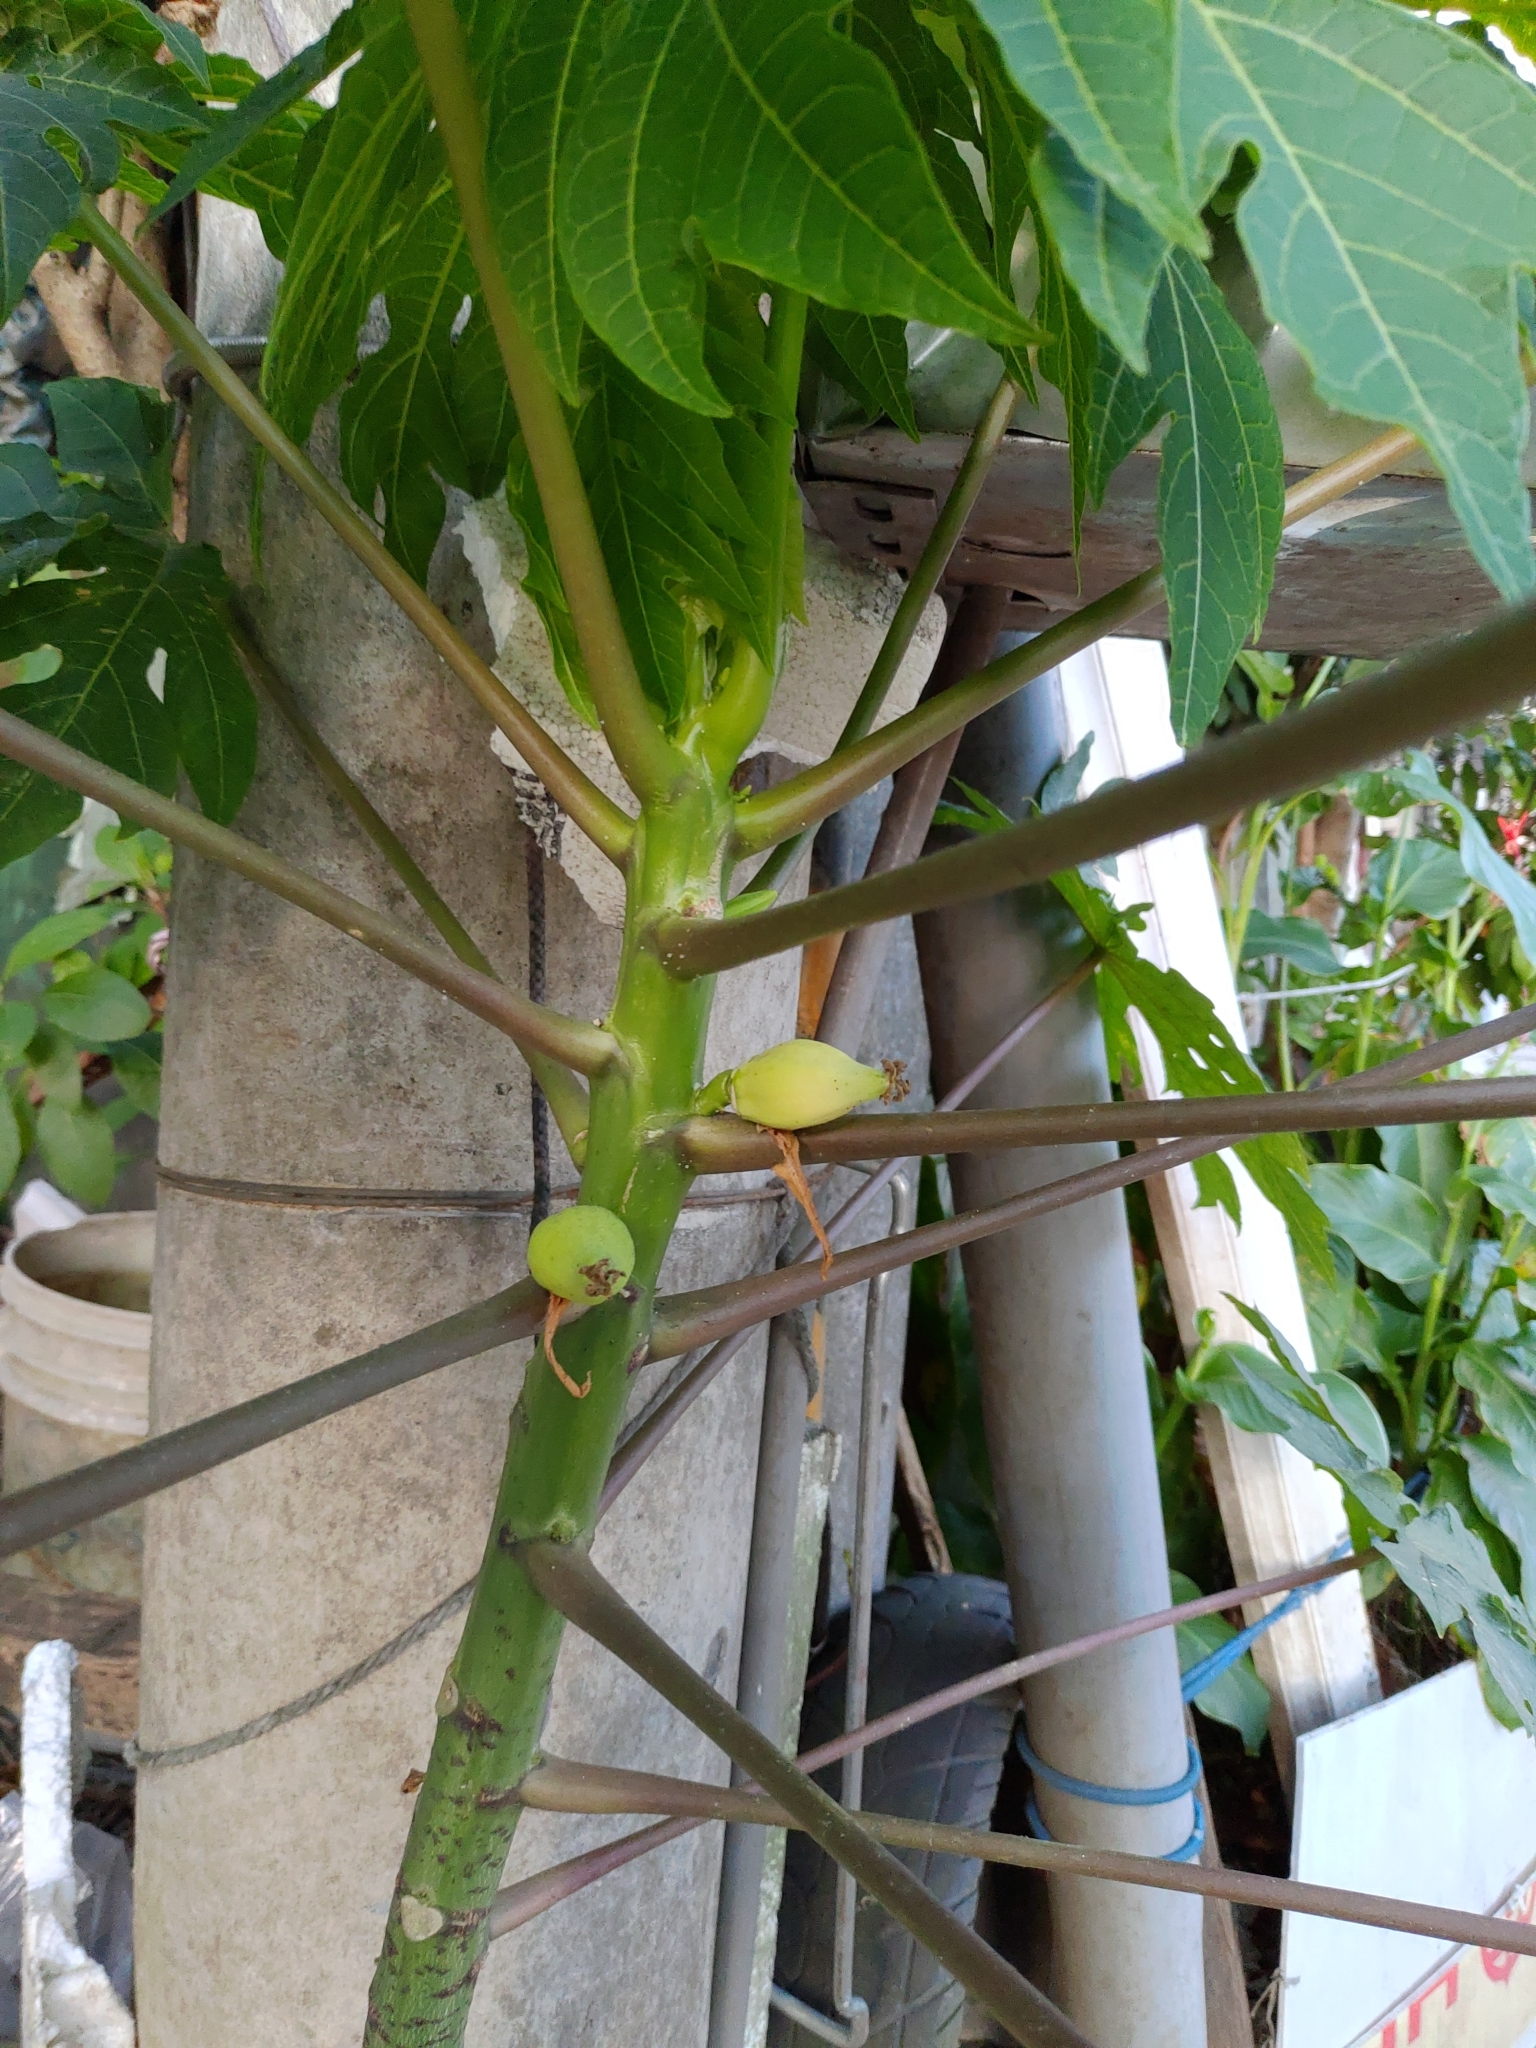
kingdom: Plantae
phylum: Tracheophyta
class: Magnoliopsida
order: Brassicales
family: Caricaceae
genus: Carica
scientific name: Carica papaya
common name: Papaya
